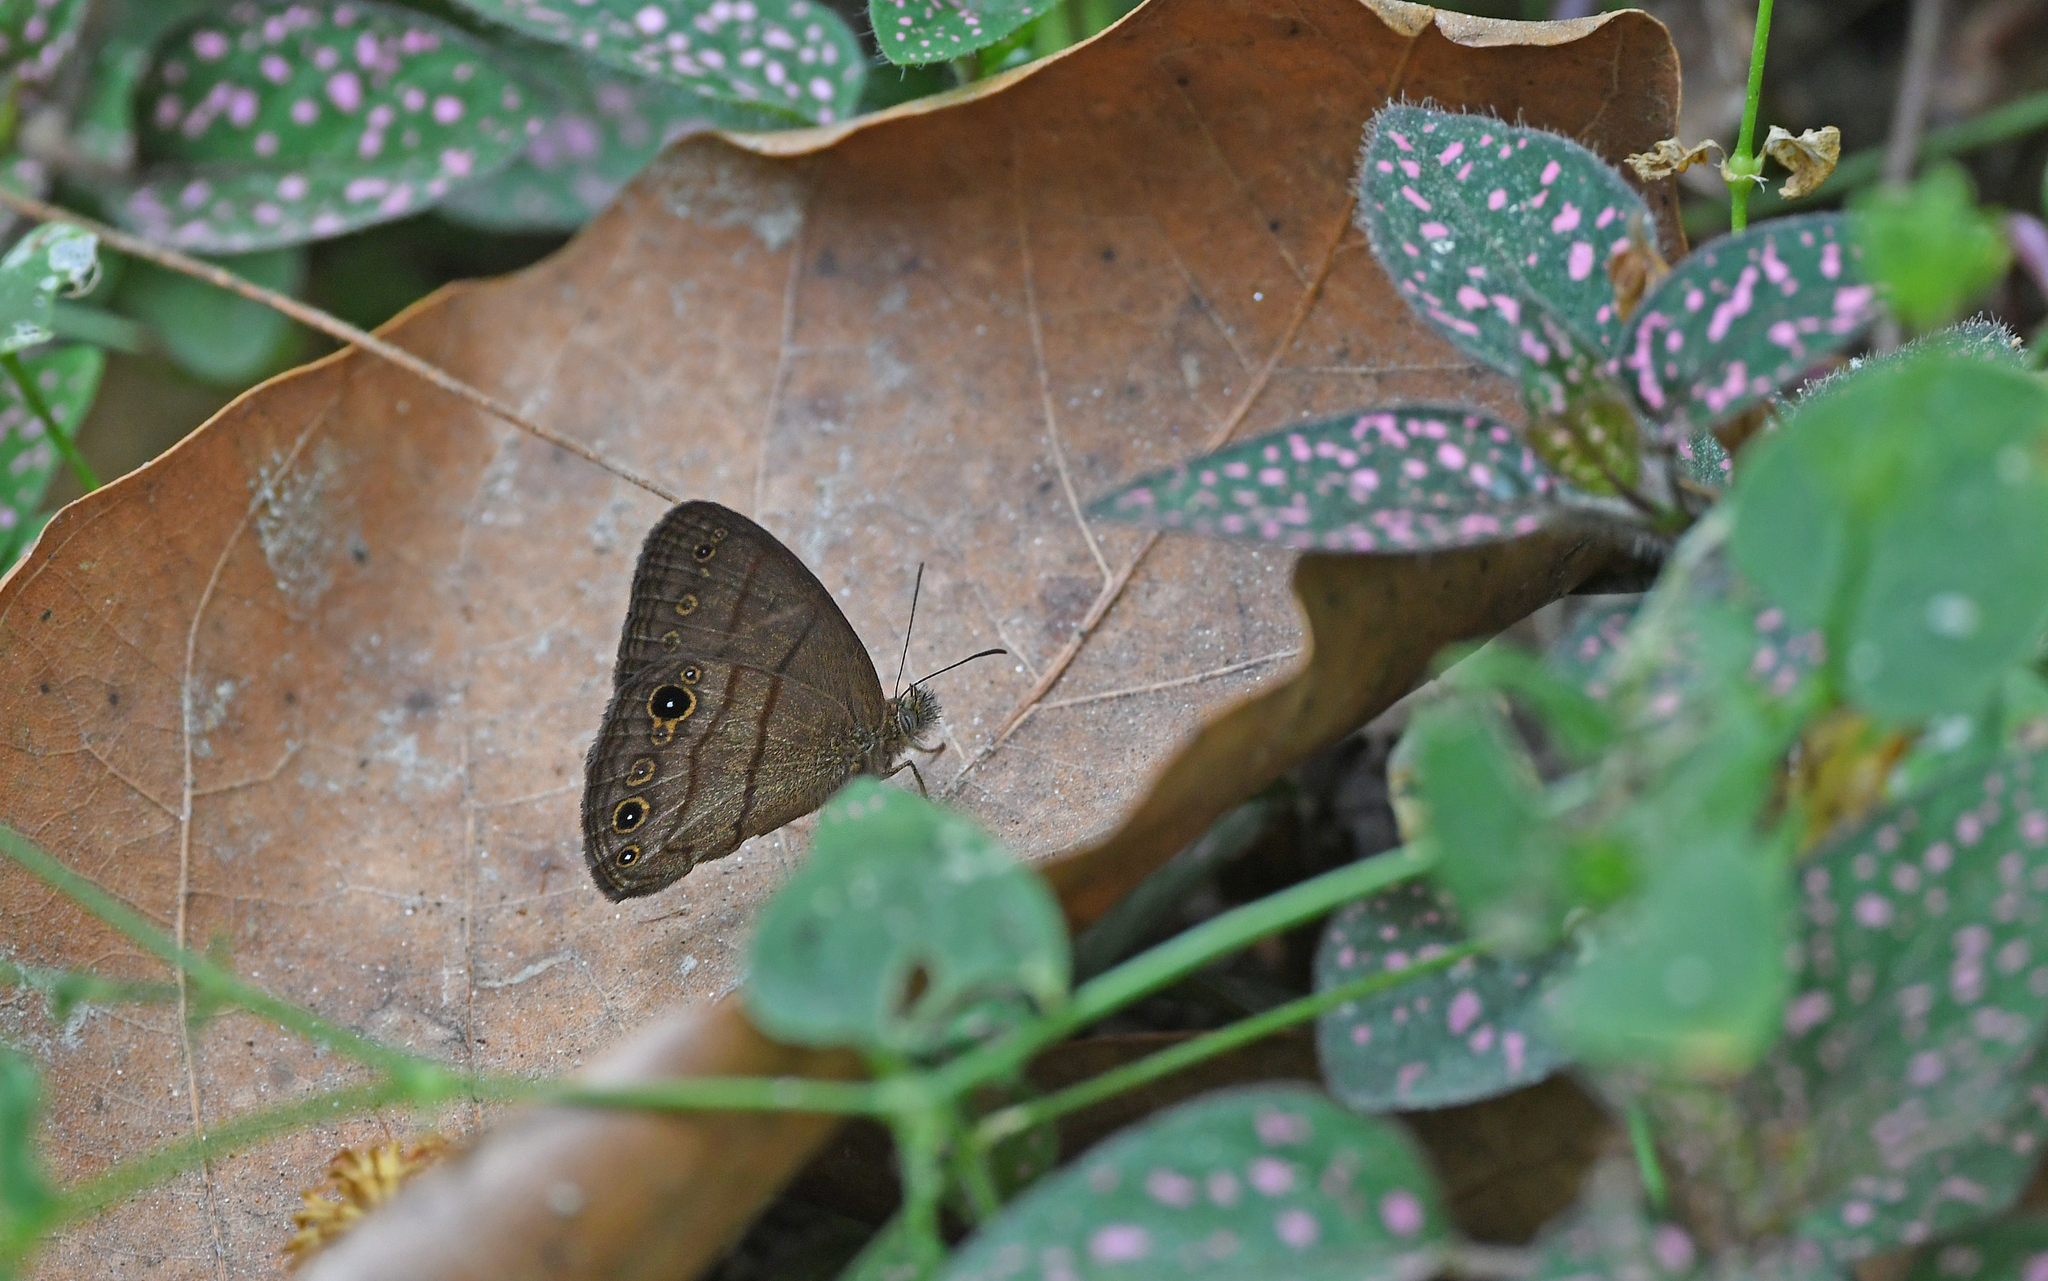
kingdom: Animalia
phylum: Arthropoda
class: Insecta
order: Lepidoptera
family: Nymphalidae
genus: Hermeuptychia
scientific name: Hermeuptychia harmonia
